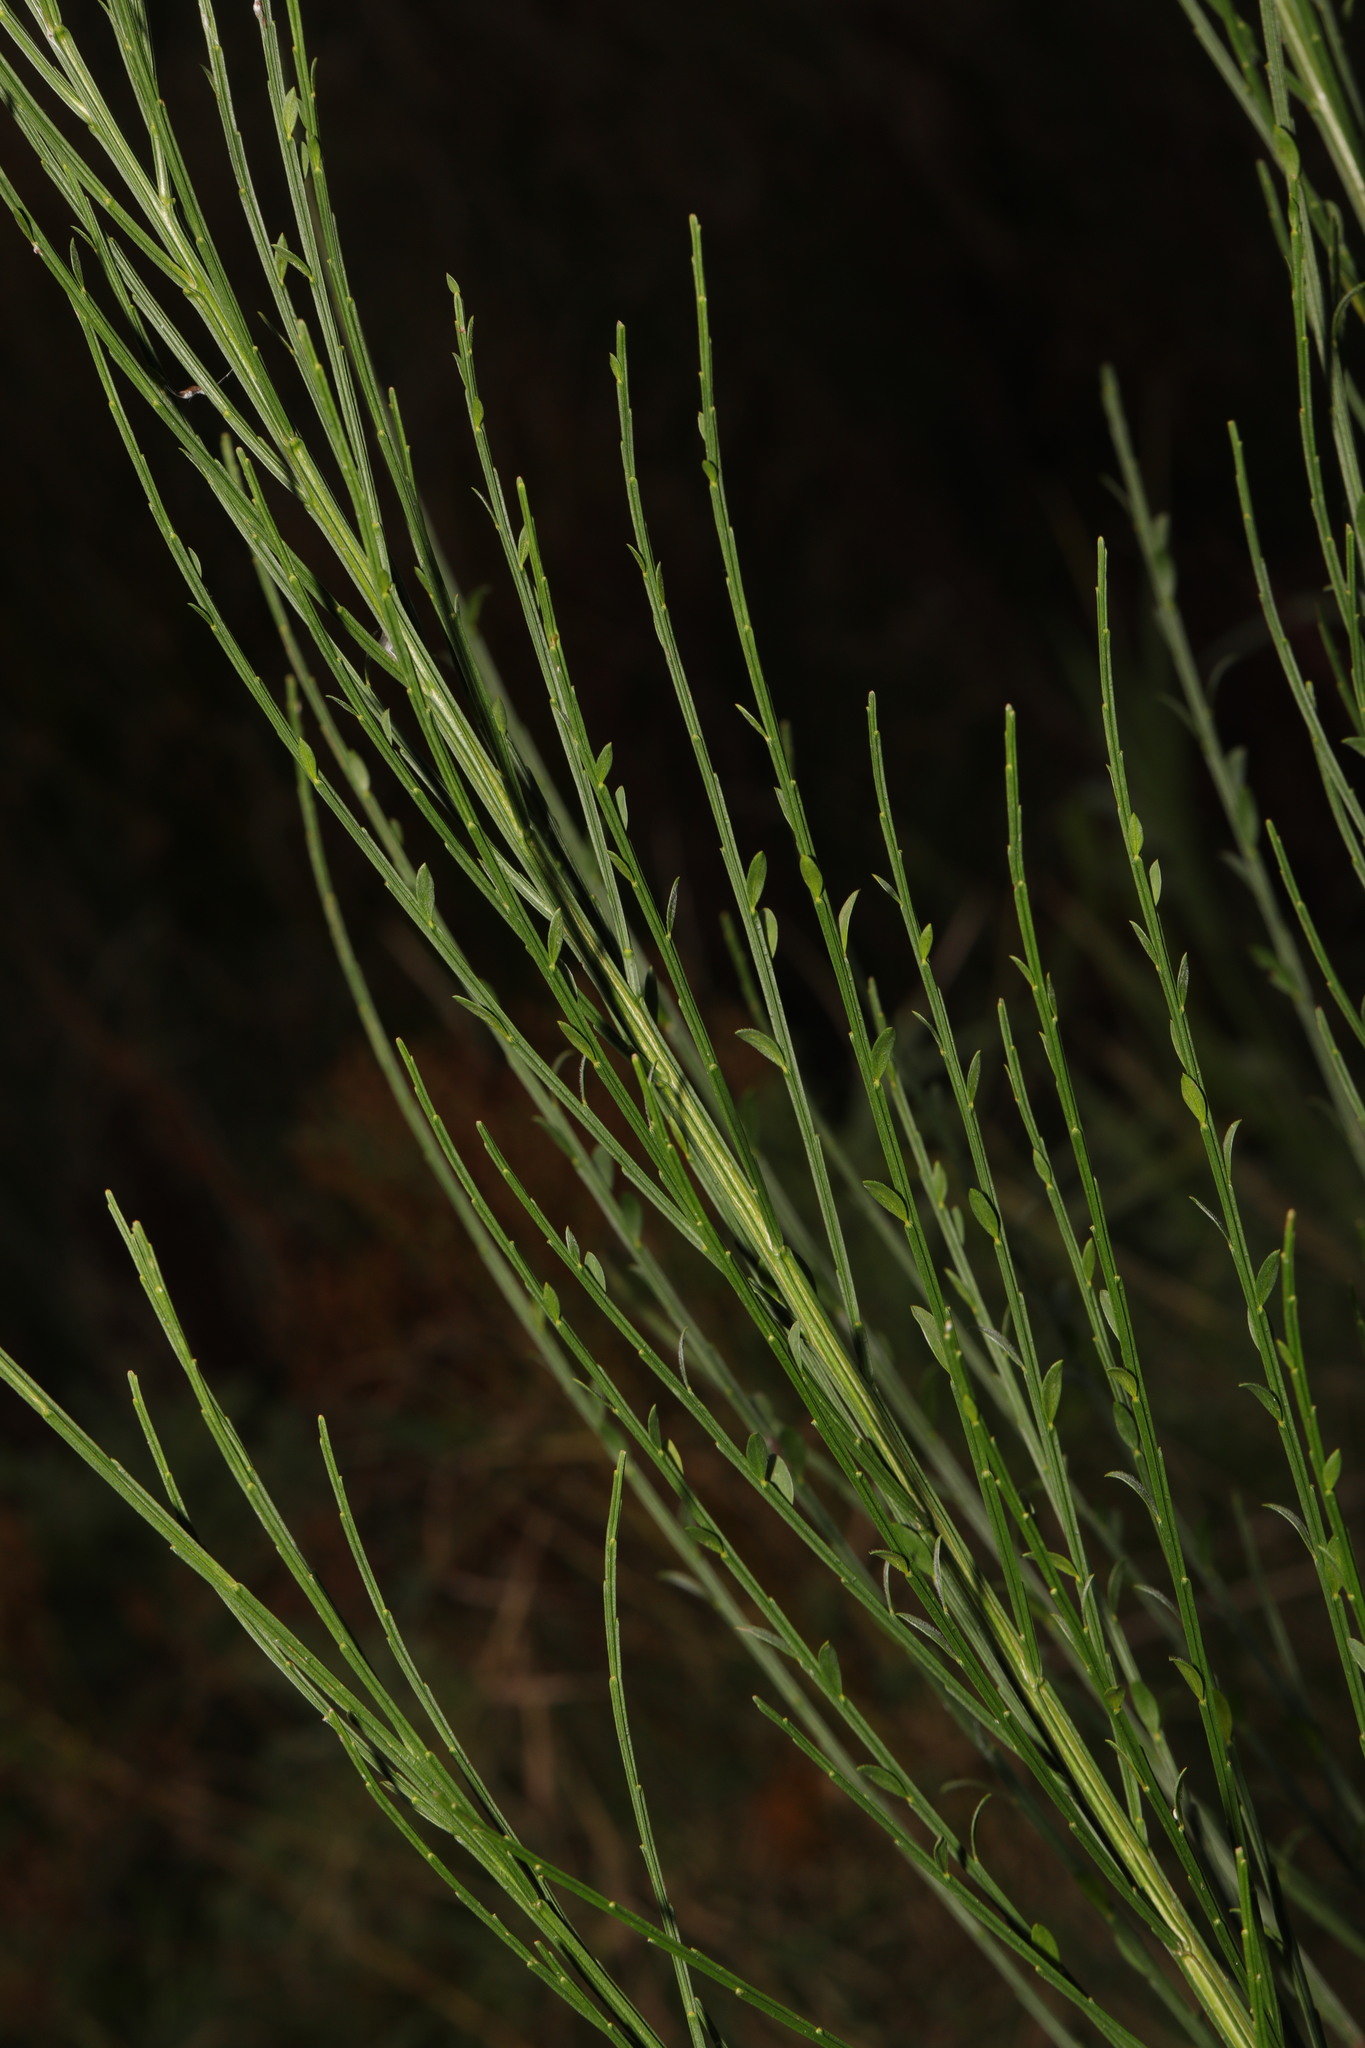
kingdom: Plantae
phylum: Tracheophyta
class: Magnoliopsida
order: Fabales
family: Fabaceae
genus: Cytisus
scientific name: Cytisus scoparius
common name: Scotch broom
